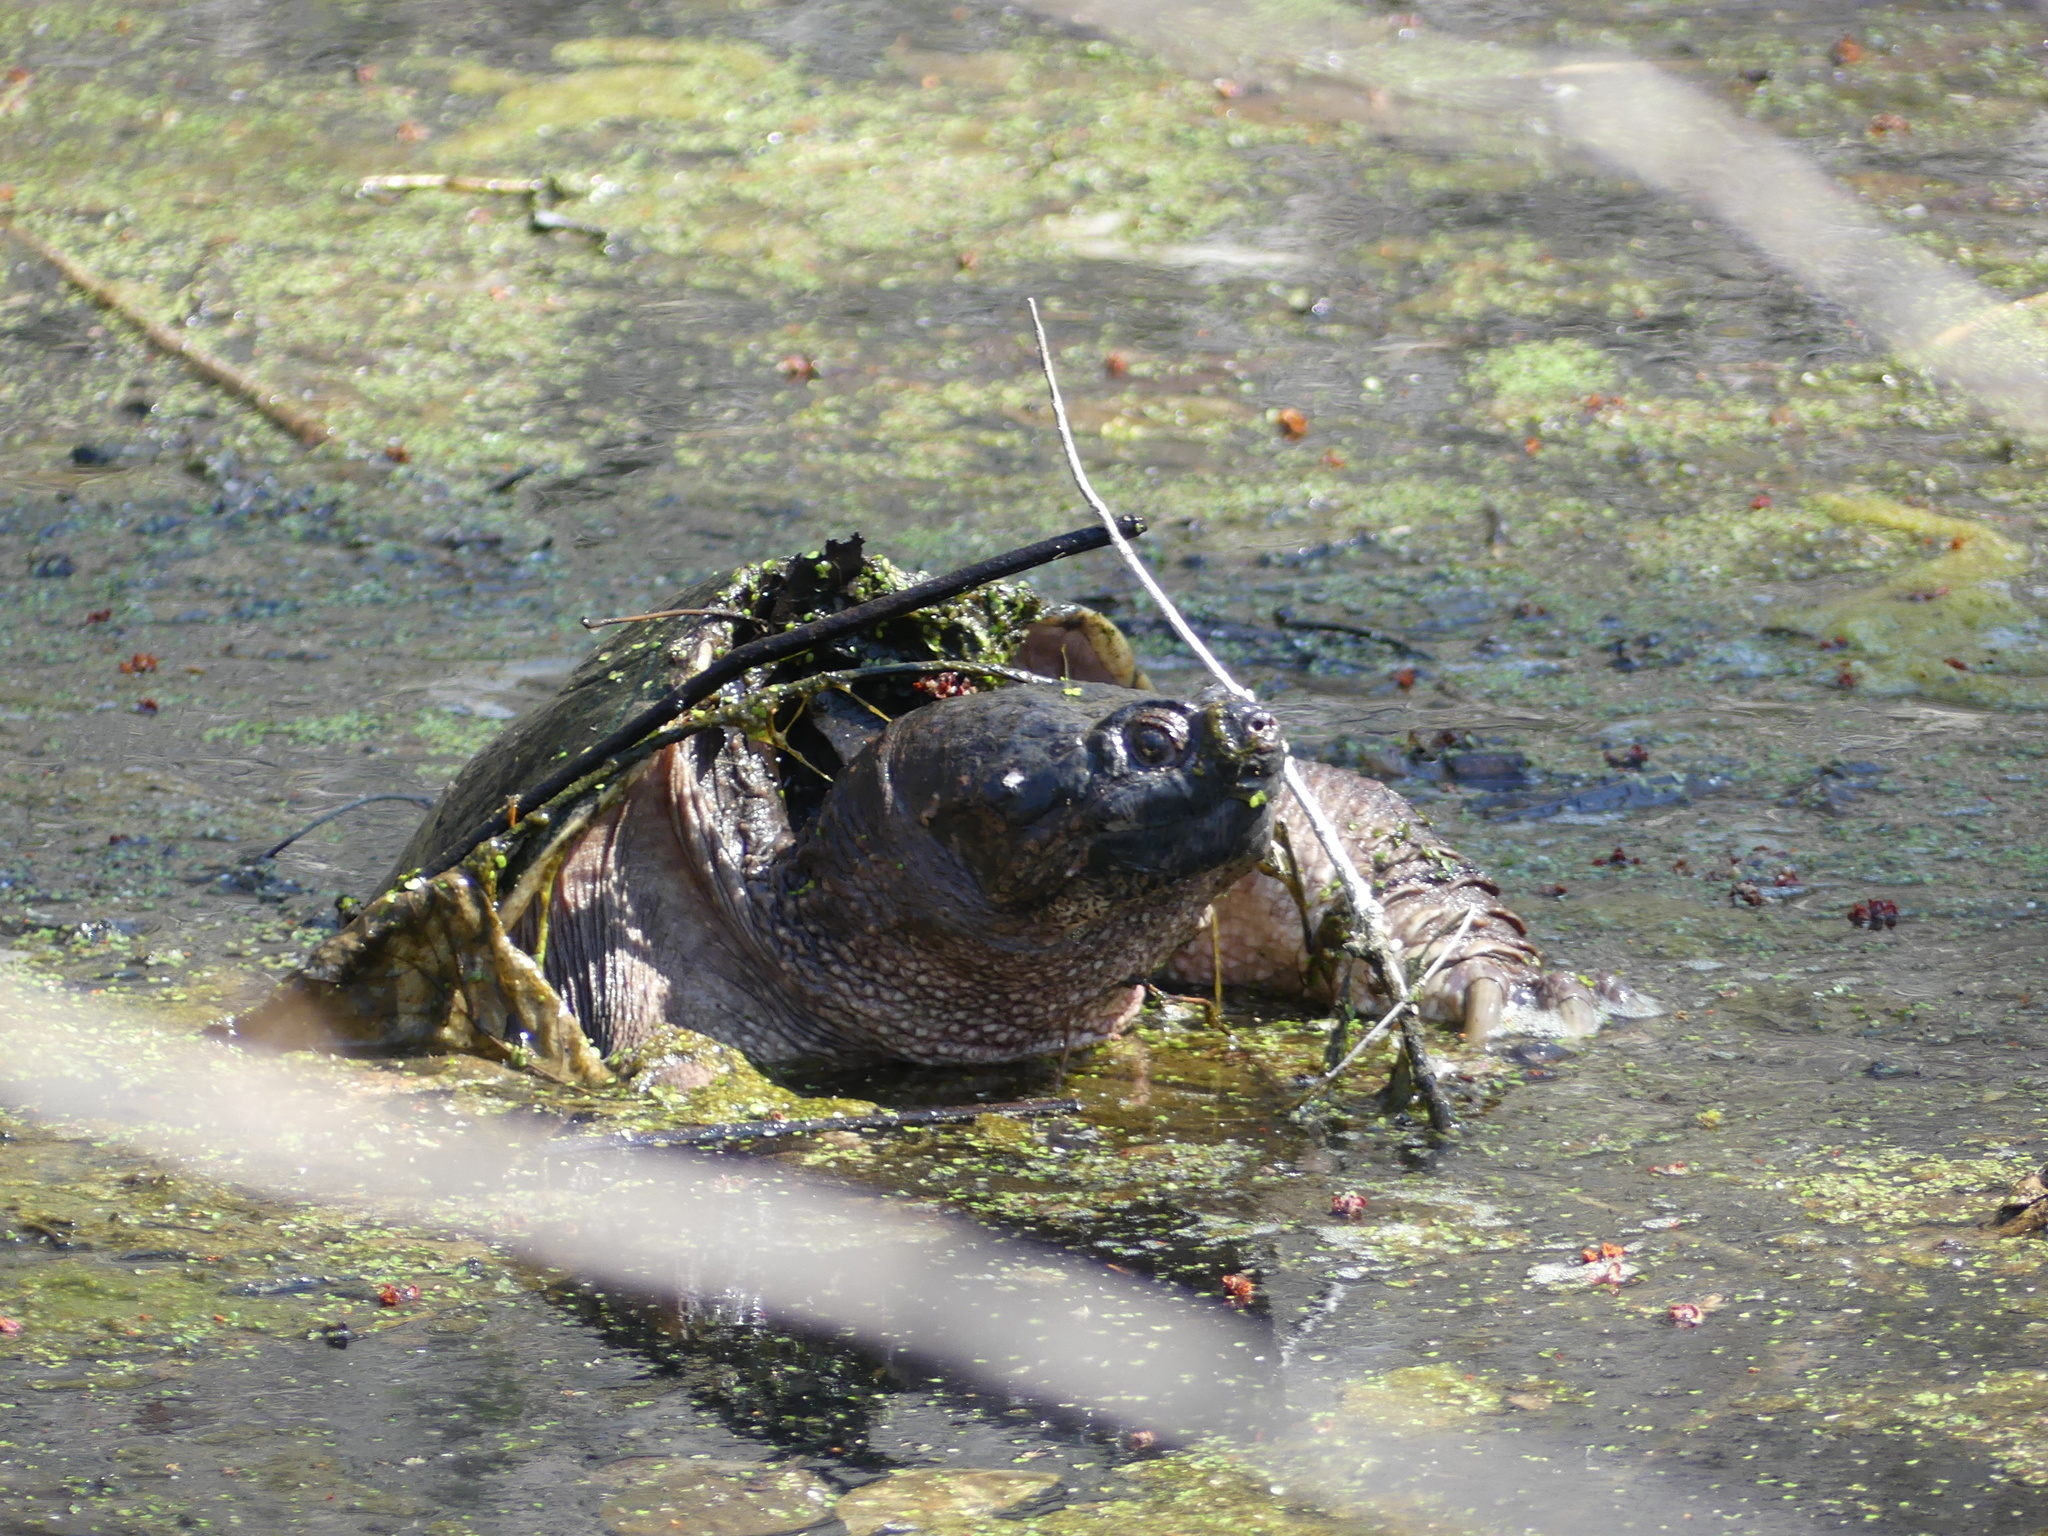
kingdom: Animalia
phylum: Chordata
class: Testudines
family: Chelydridae
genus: Chelydra
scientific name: Chelydra serpentina
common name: Common snapping turtle
